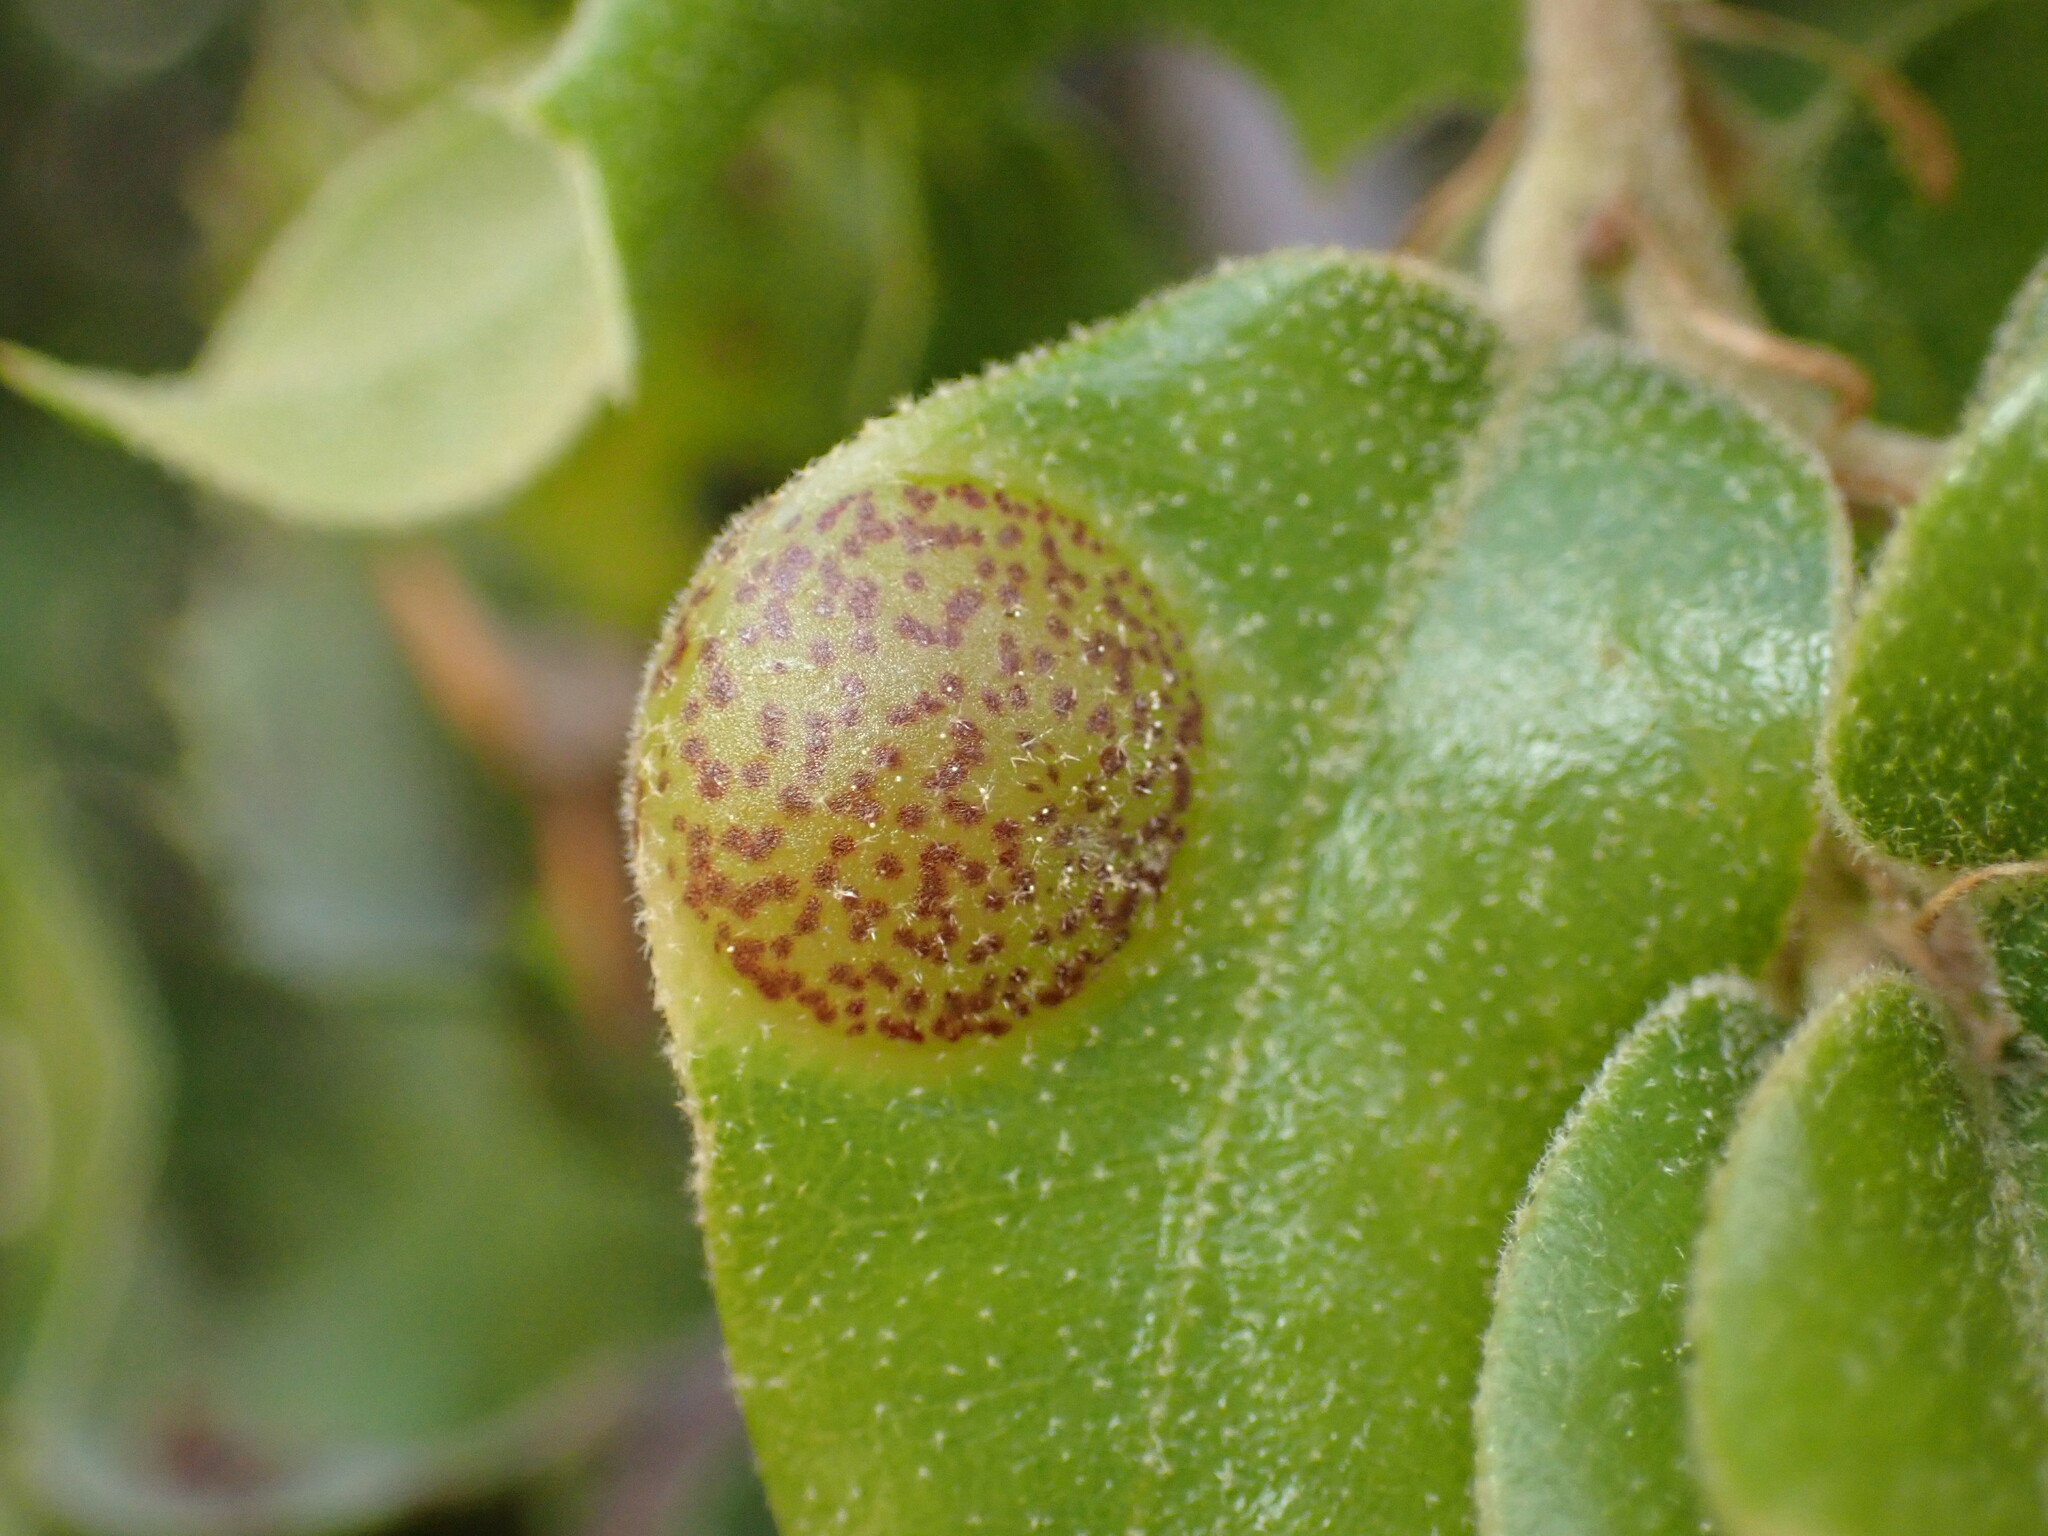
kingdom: Animalia
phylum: Arthropoda
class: Insecta
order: Hymenoptera
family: Cynipidae
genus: Heteroecus
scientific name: Heteroecus
